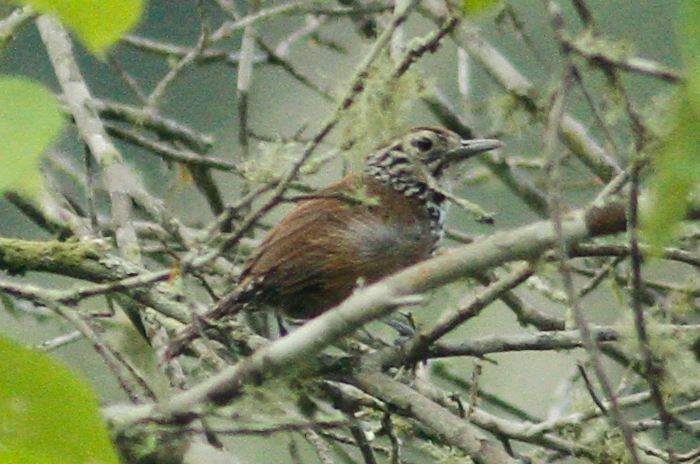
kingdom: Animalia
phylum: Chordata
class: Aves
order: Passeriformes
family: Troglodytidae
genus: Pheugopedius
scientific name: Pheugopedius sclateri
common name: Speckle-breasted wren
